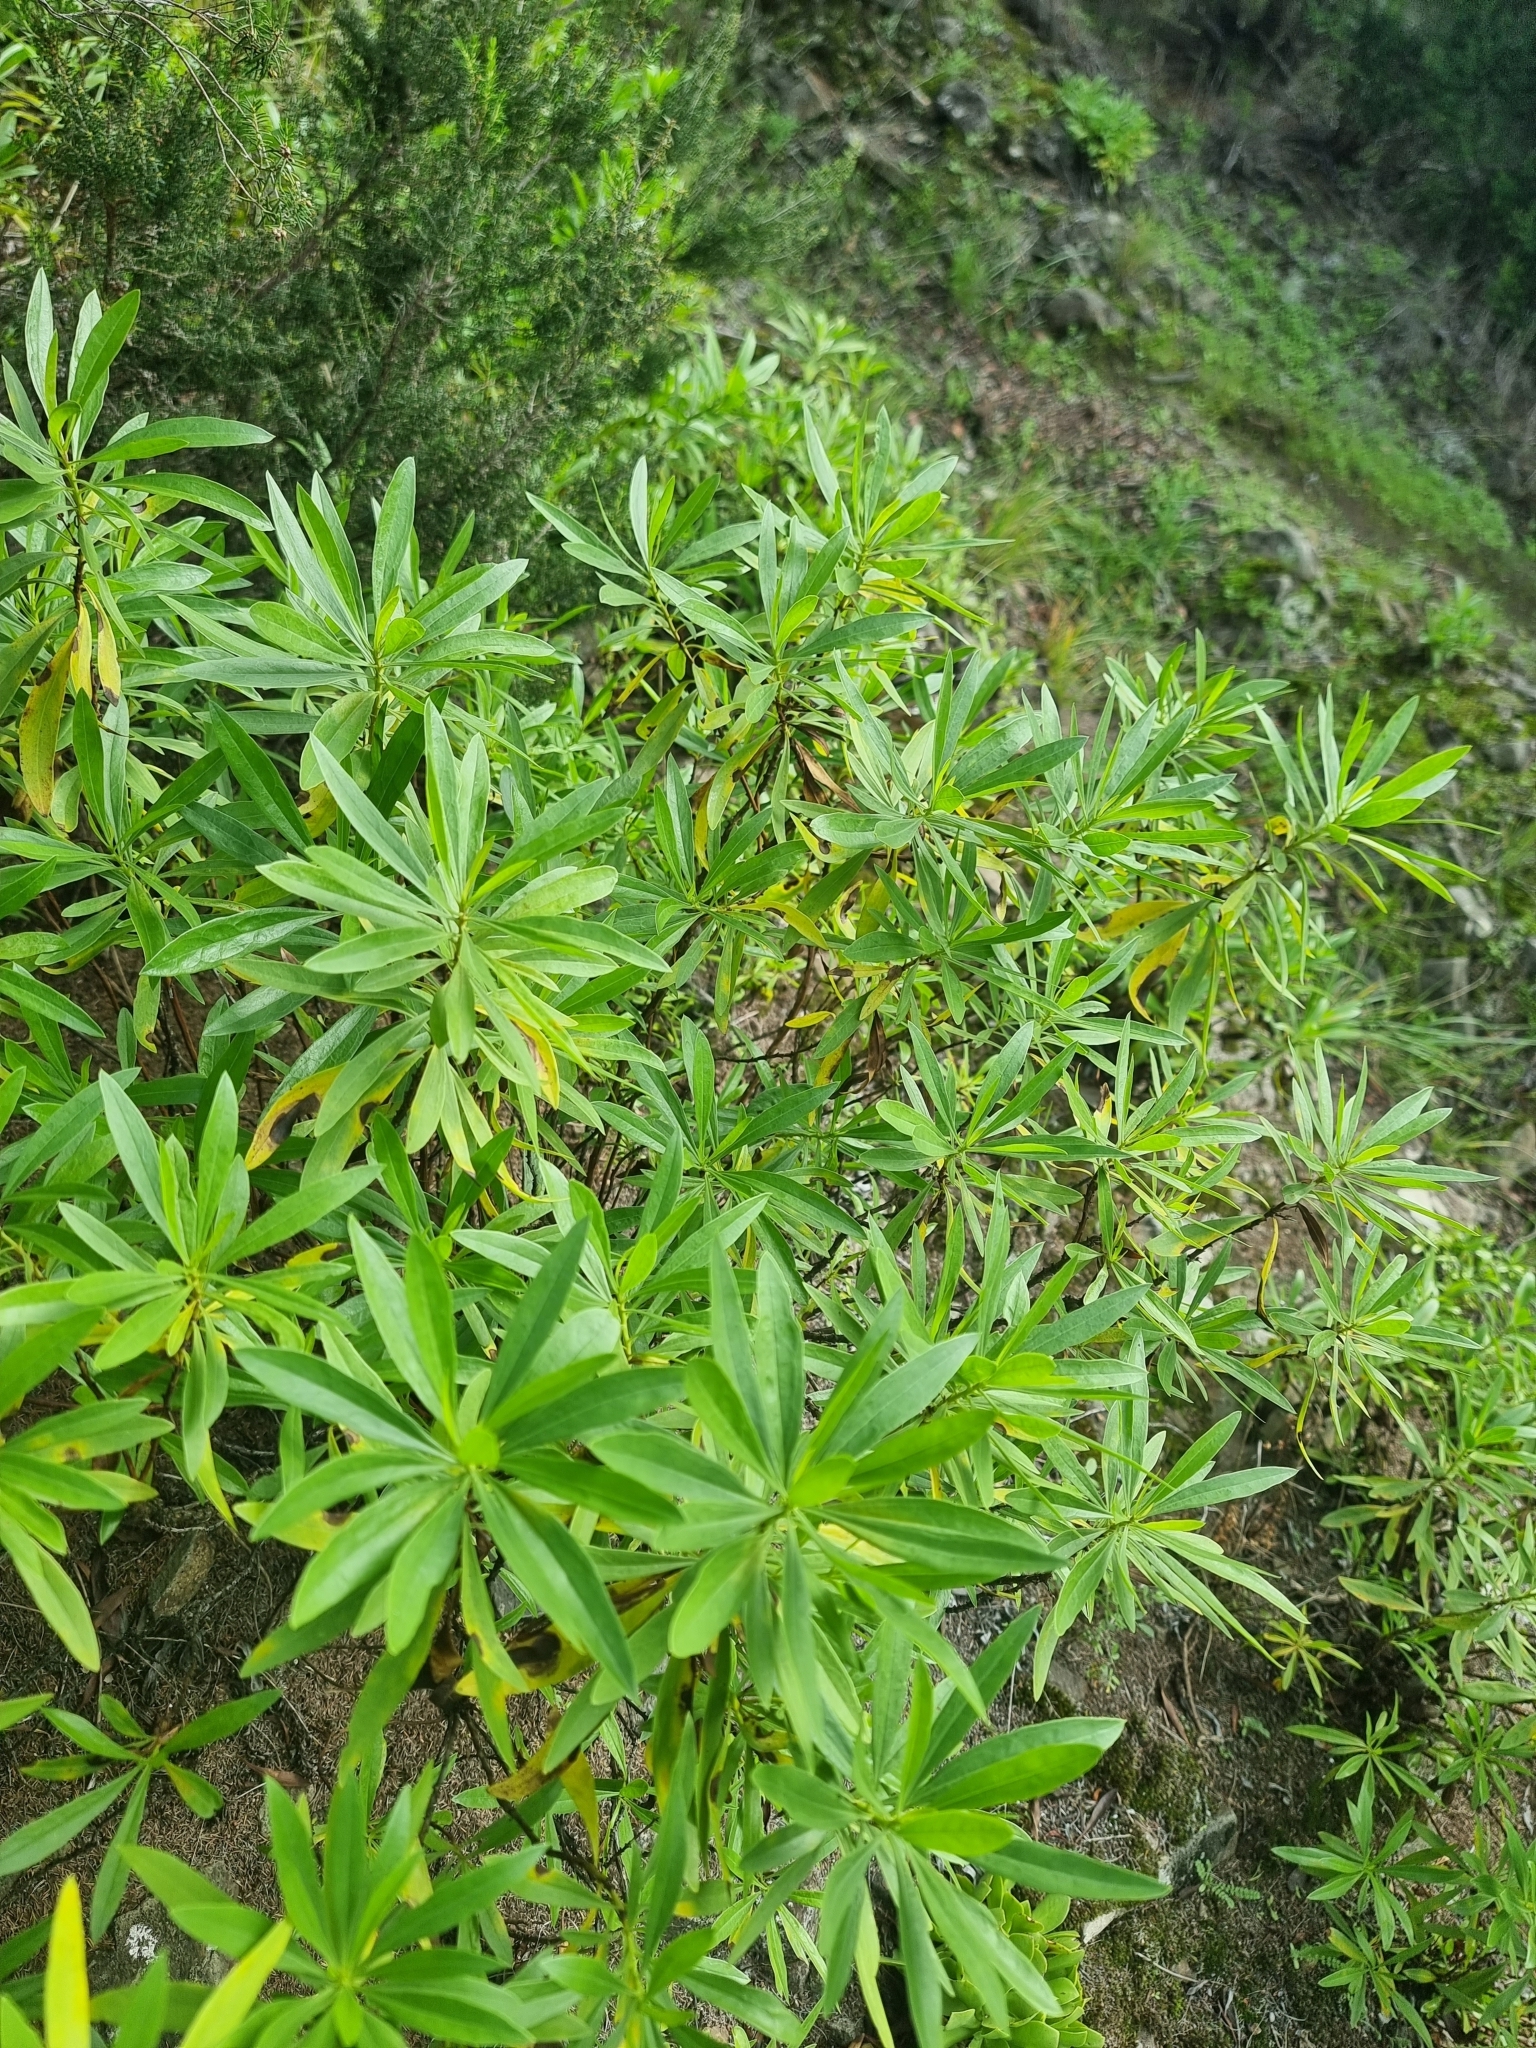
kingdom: Plantae
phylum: Tracheophyta
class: Magnoliopsida
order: Lamiales
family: Plantaginaceae
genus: Globularia
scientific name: Globularia salicina
